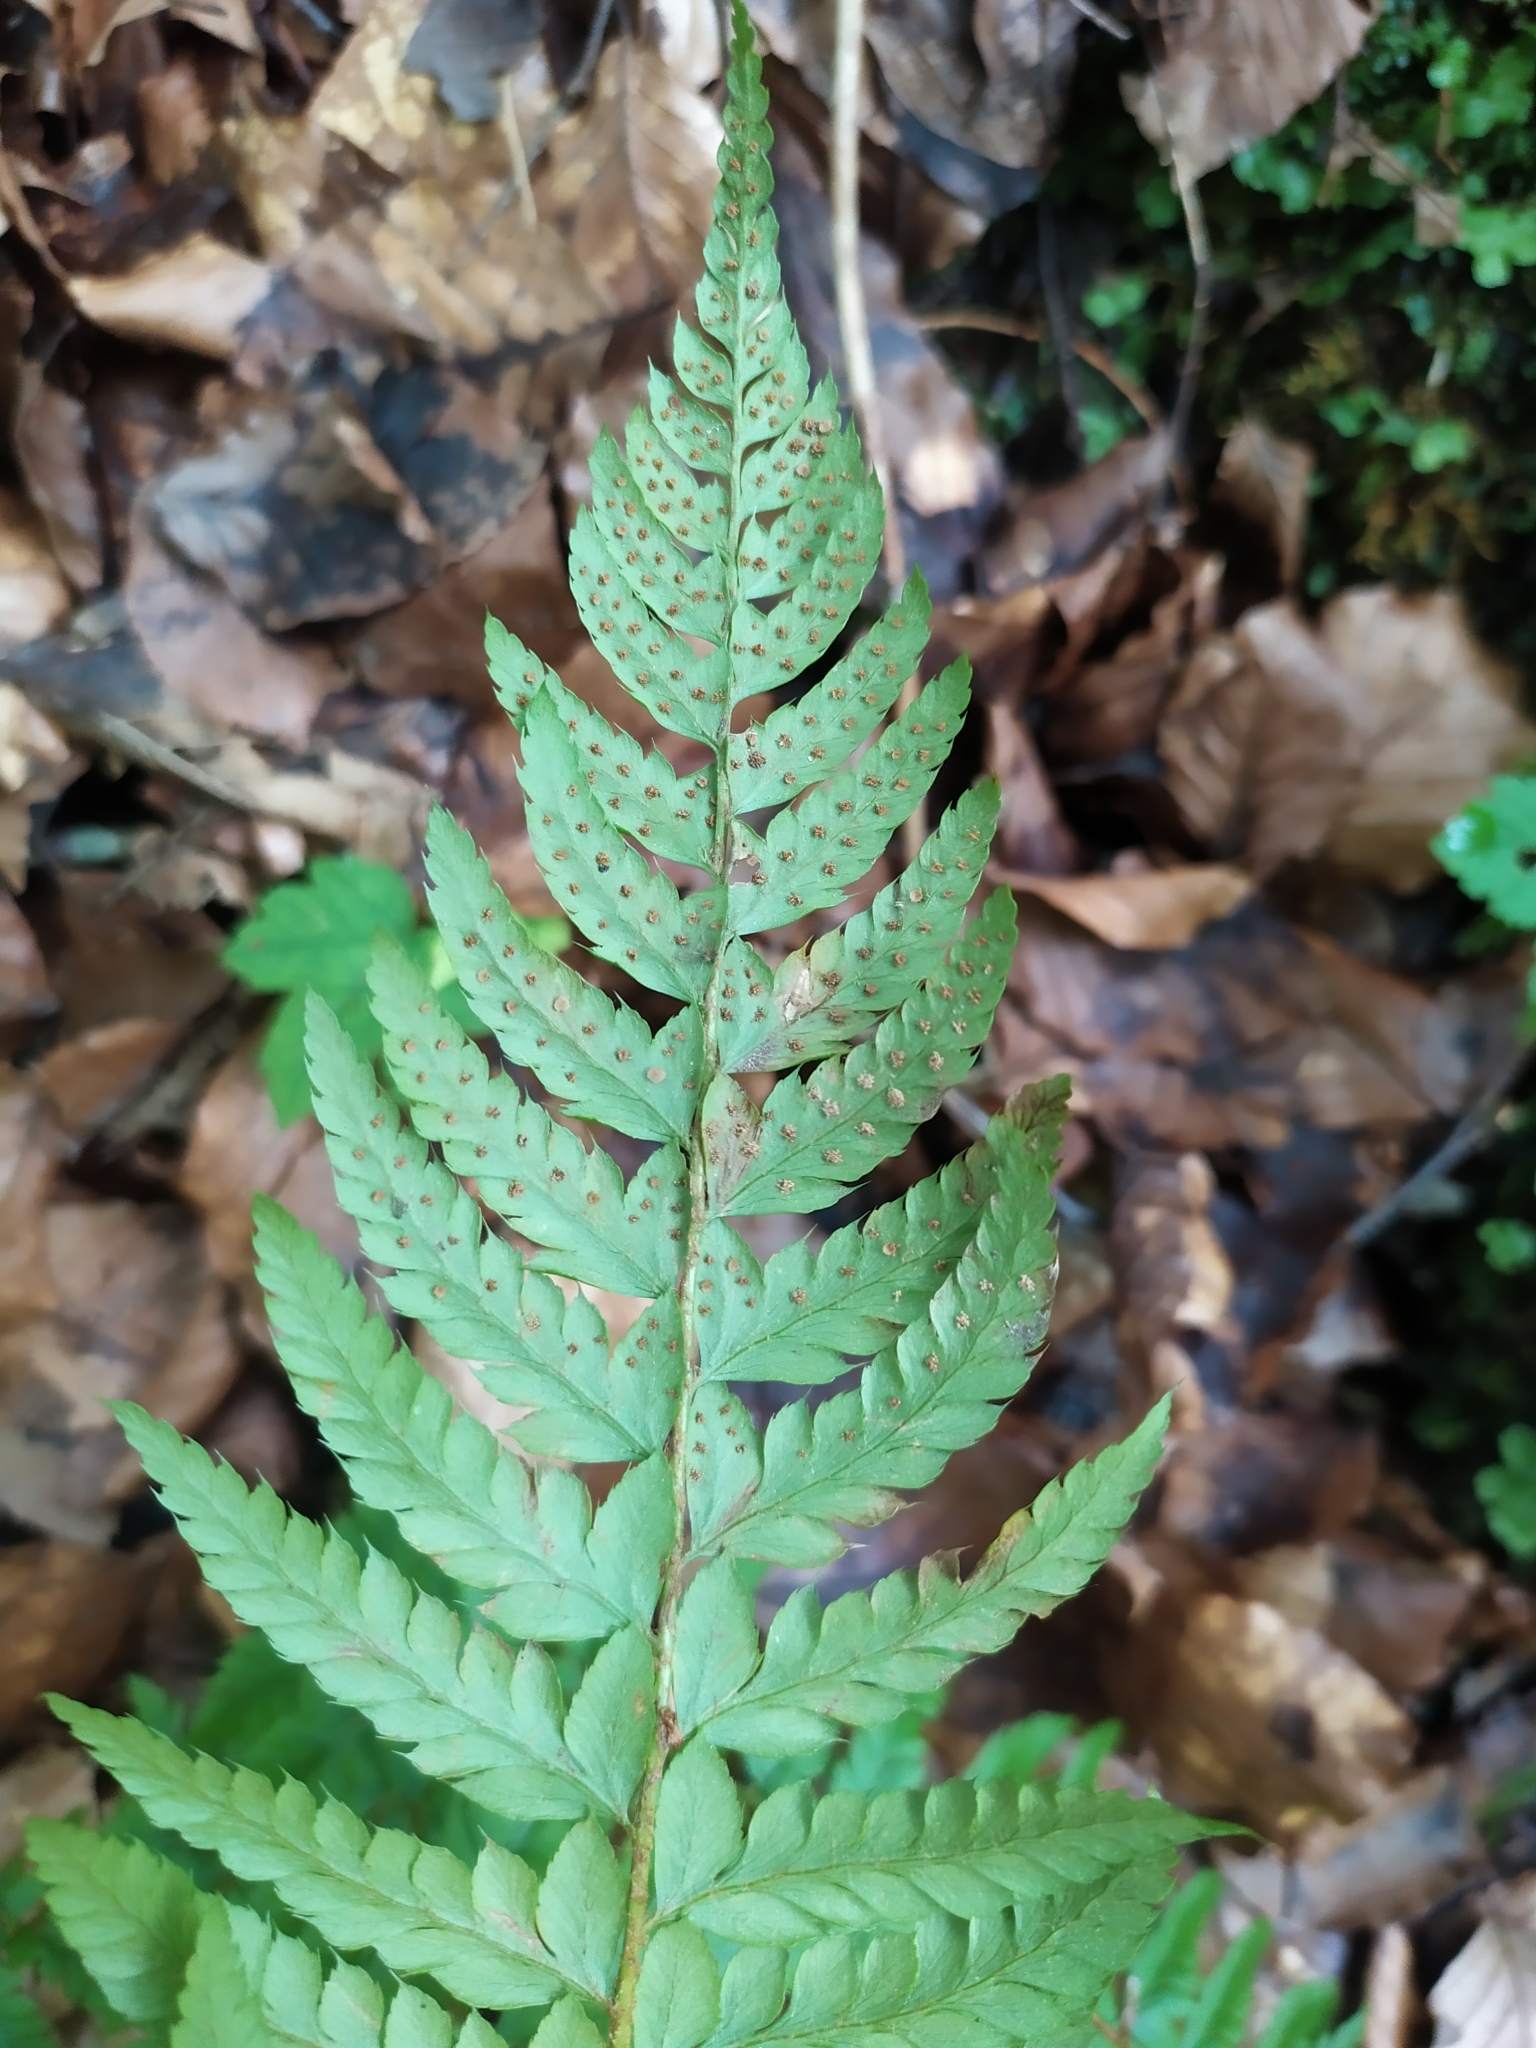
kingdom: Plantae
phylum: Tracheophyta
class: Polypodiopsida
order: Polypodiales
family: Dryopteridaceae
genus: Polystichum
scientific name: Polystichum aculeatum
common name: Hard shield-fern
